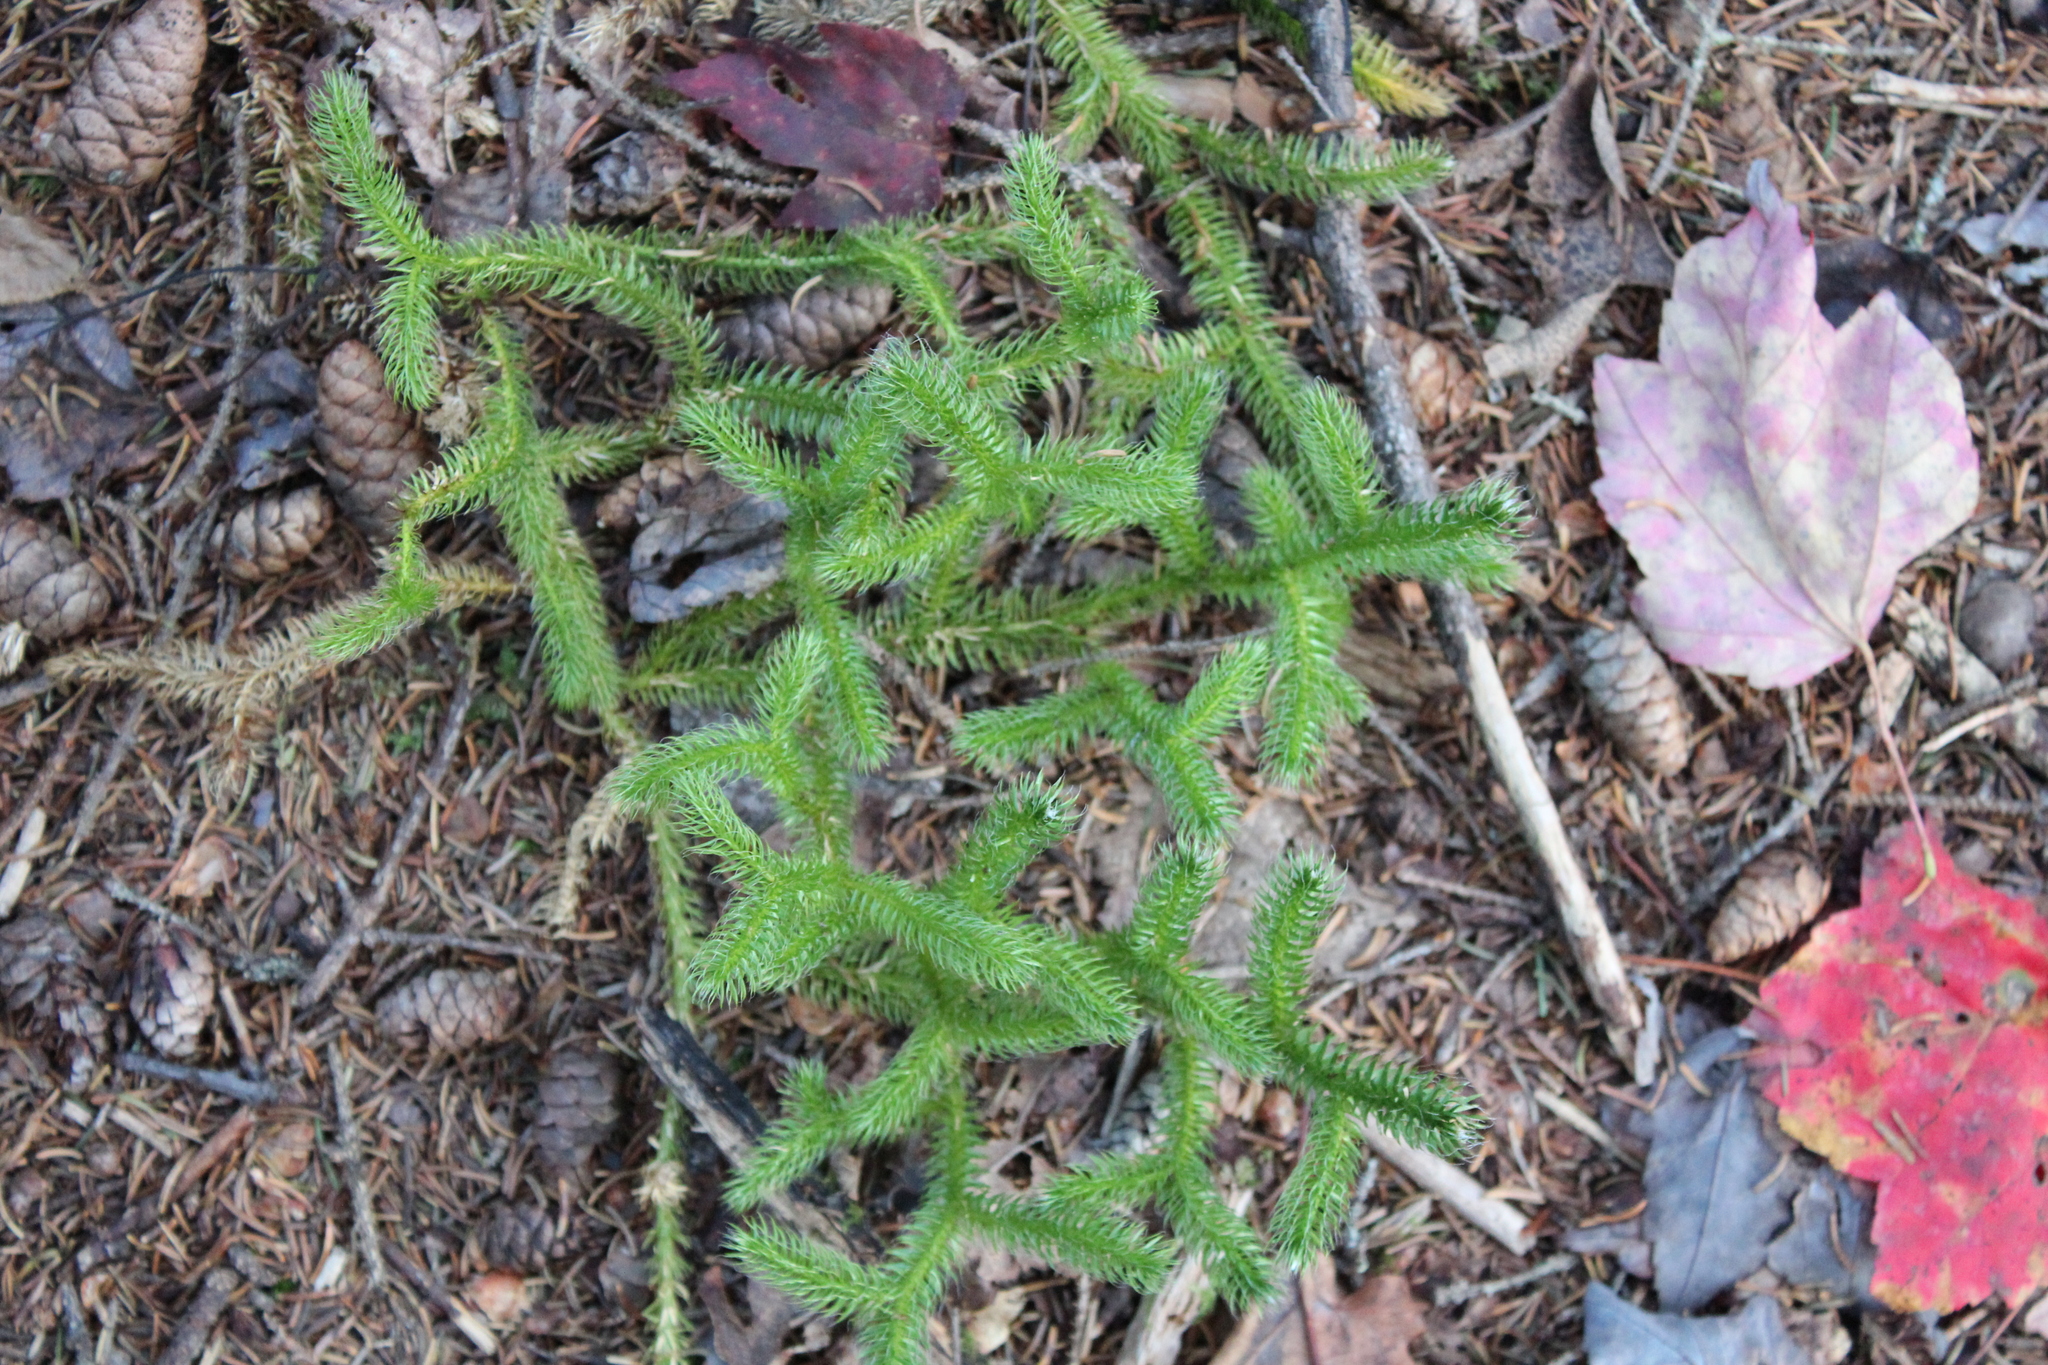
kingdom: Plantae
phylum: Tracheophyta
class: Lycopodiopsida
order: Lycopodiales
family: Lycopodiaceae
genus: Lycopodium
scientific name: Lycopodium clavatum
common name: Stag's-horn clubmoss
